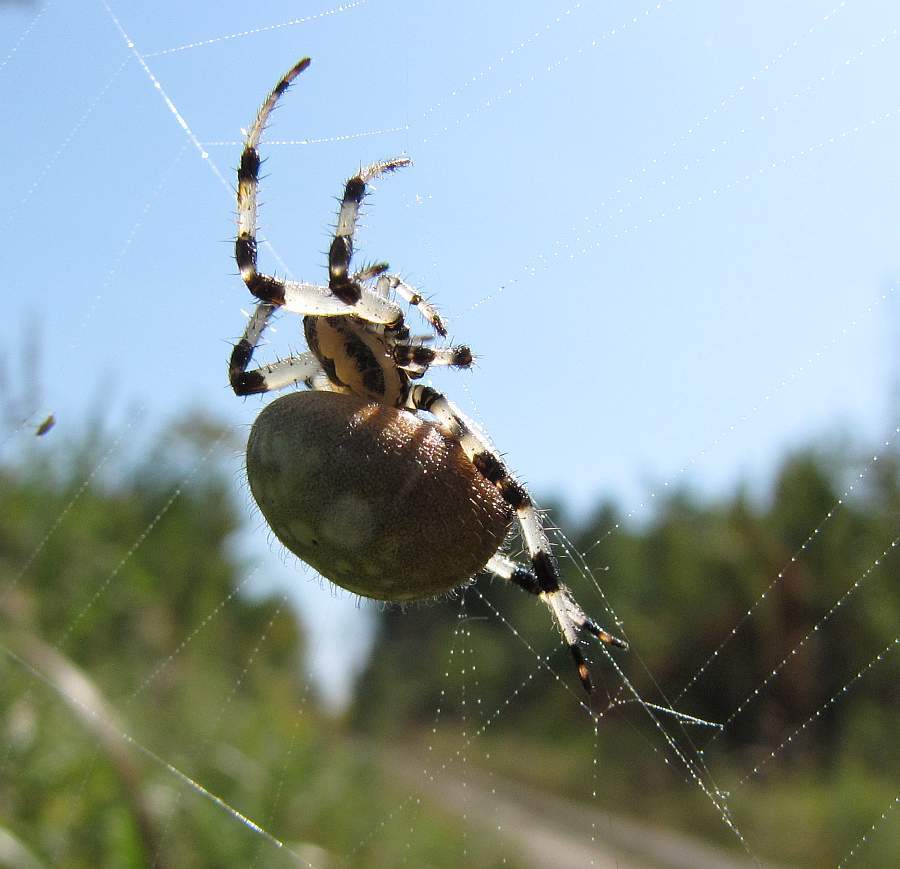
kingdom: Animalia
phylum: Arthropoda
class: Arachnida
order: Araneae
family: Araneidae
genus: Araneus
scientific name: Araneus trifolium
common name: Shamrock orbweaver
